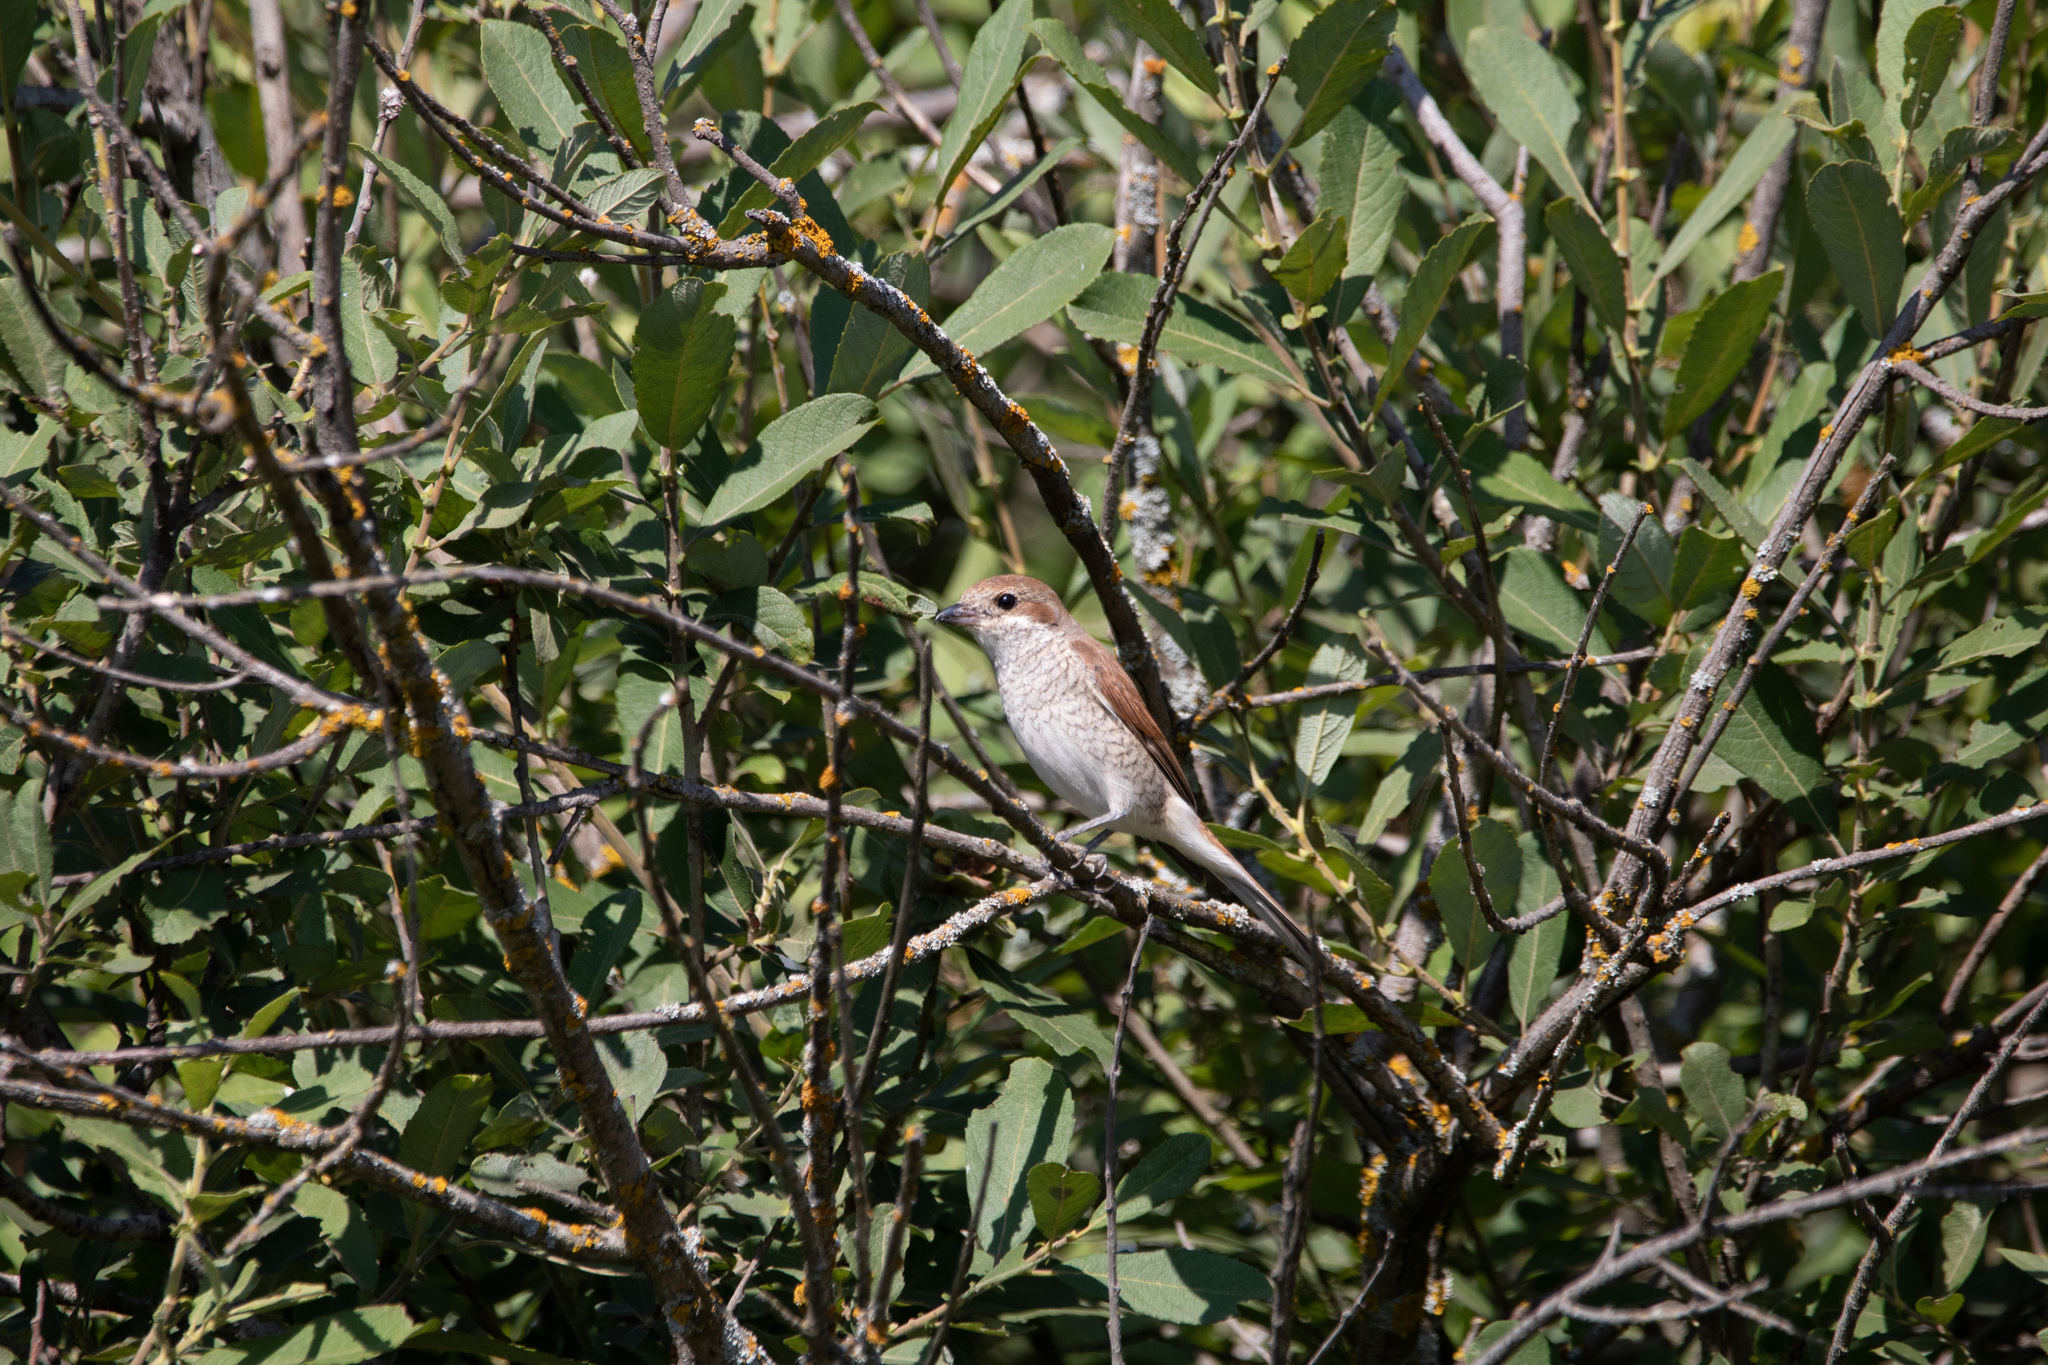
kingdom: Animalia
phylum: Chordata
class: Aves
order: Passeriformes
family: Laniidae
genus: Lanius
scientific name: Lanius collurio
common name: Red-backed shrike
